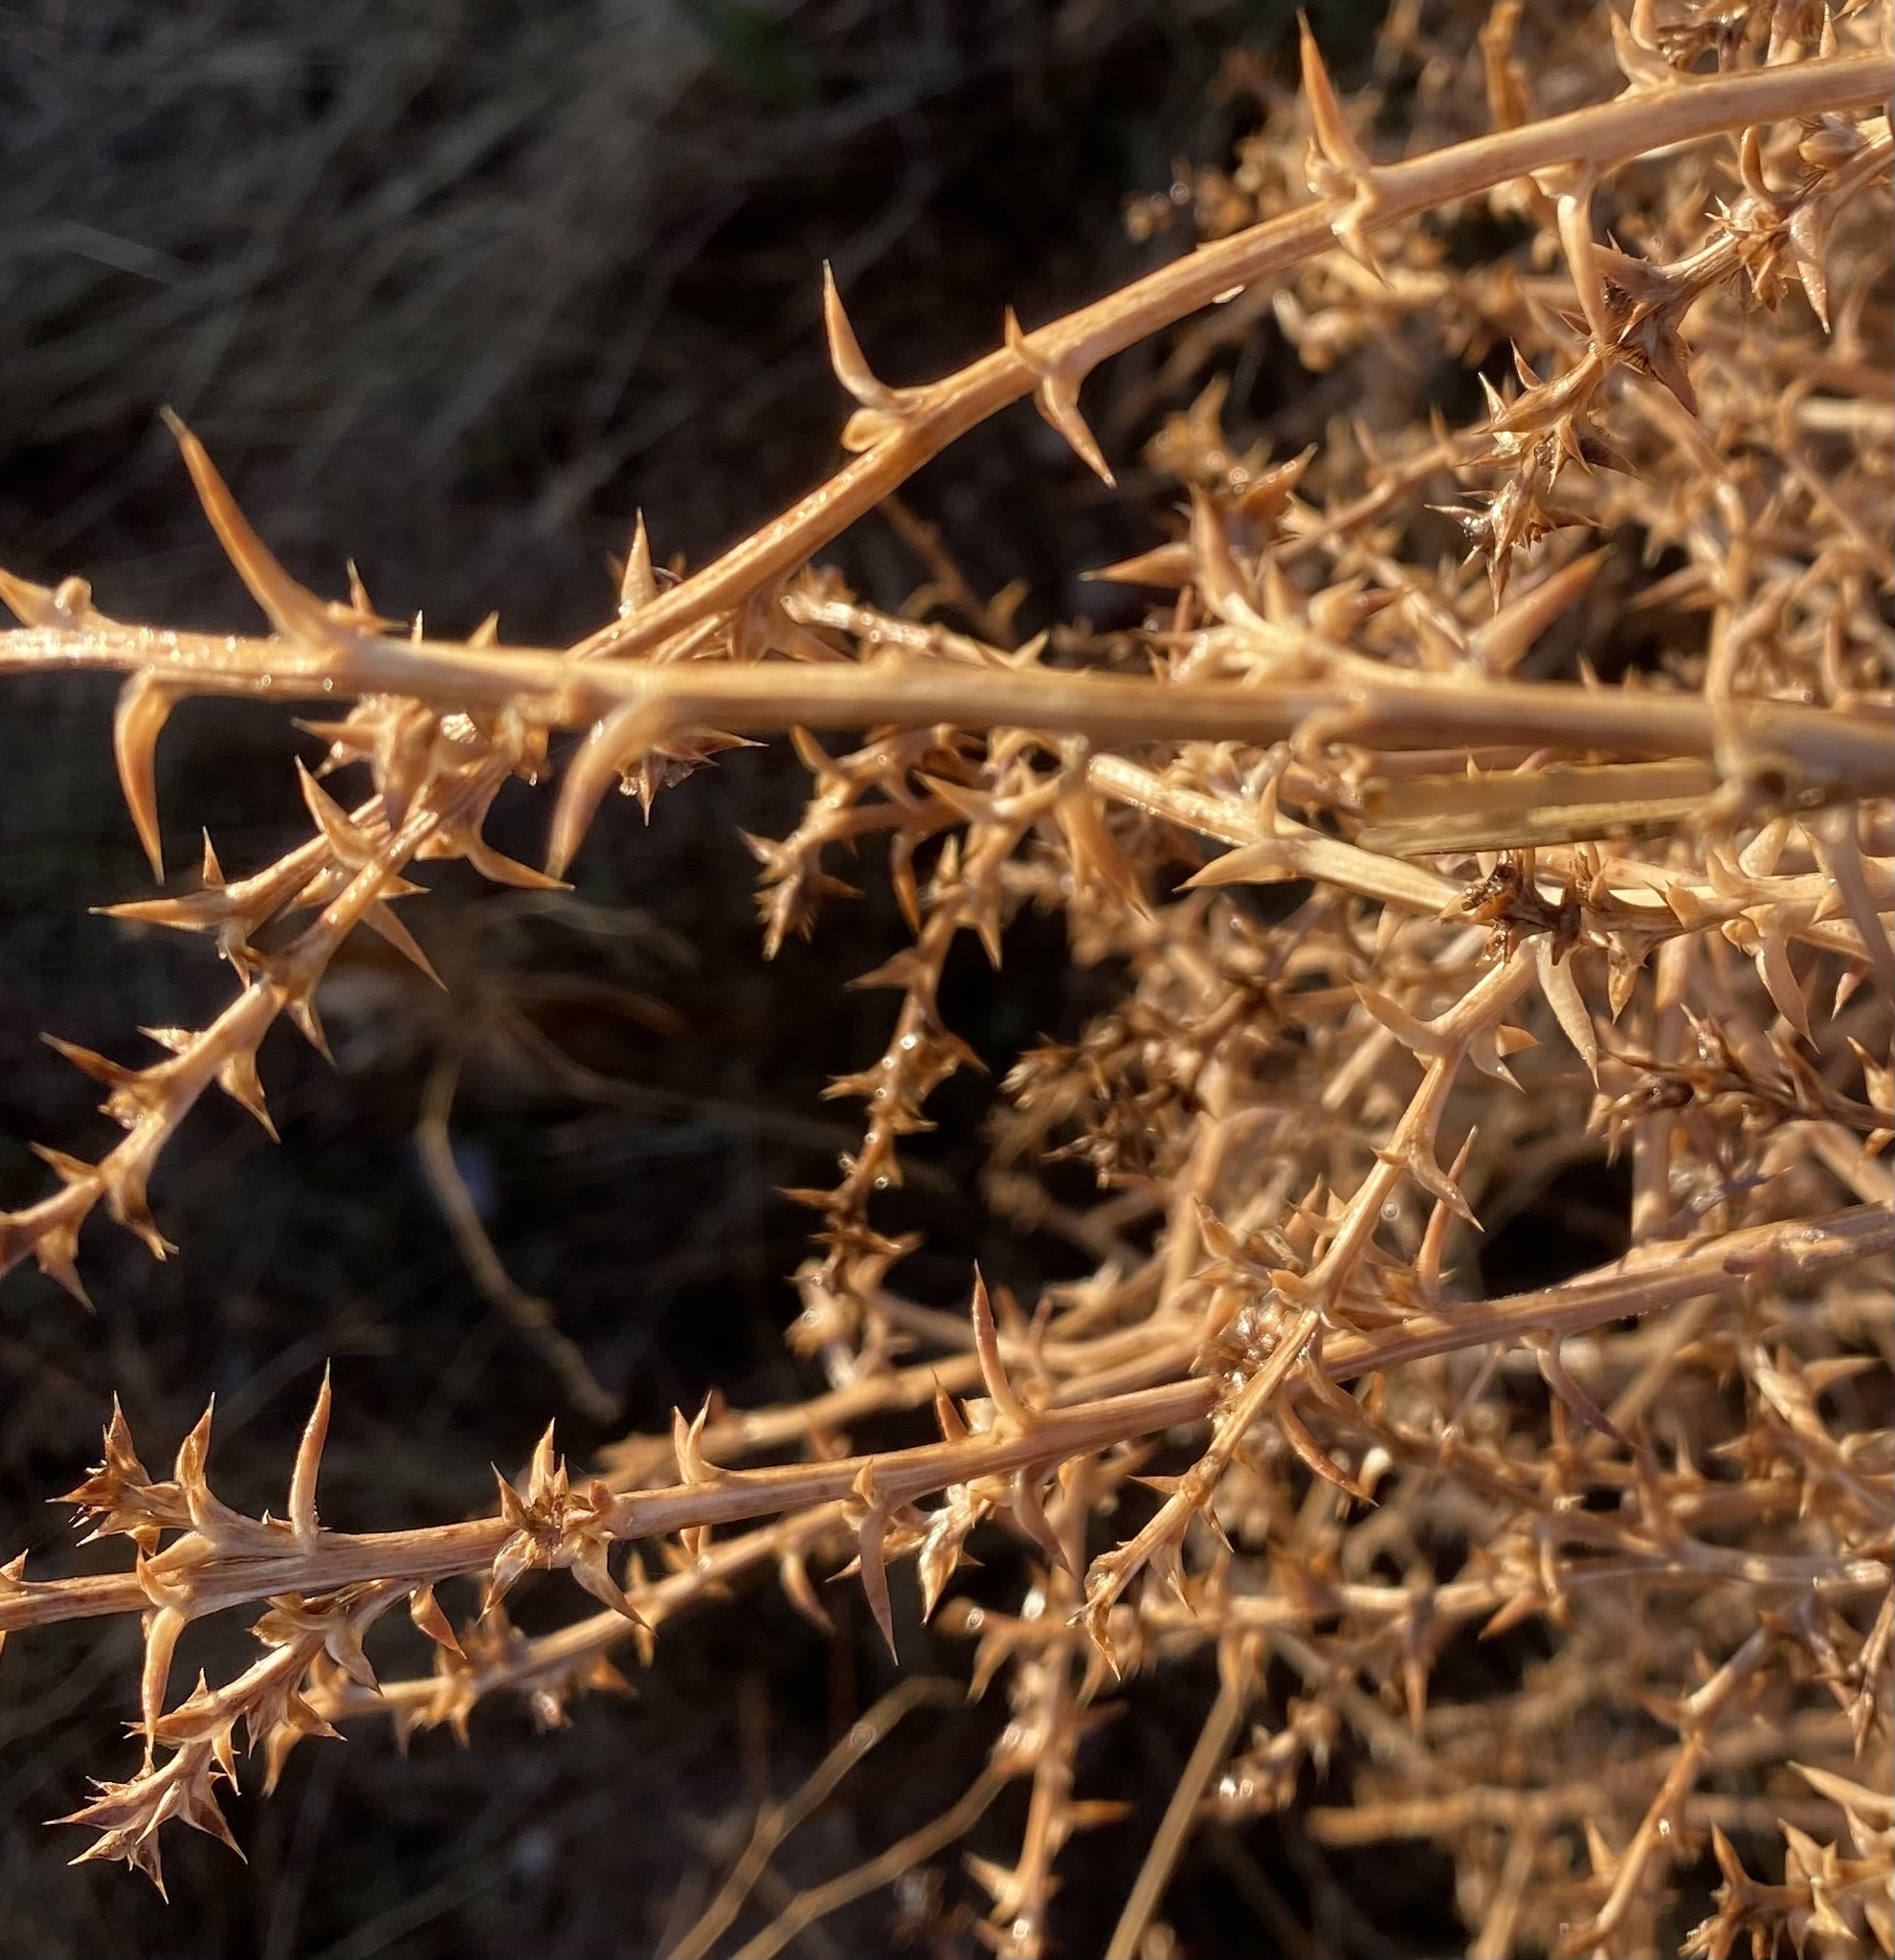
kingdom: Plantae
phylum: Tracheophyta
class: Magnoliopsida
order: Caryophyllales
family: Amaranthaceae
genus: Salsola
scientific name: Salsola tragus
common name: Prickly russian thistle
